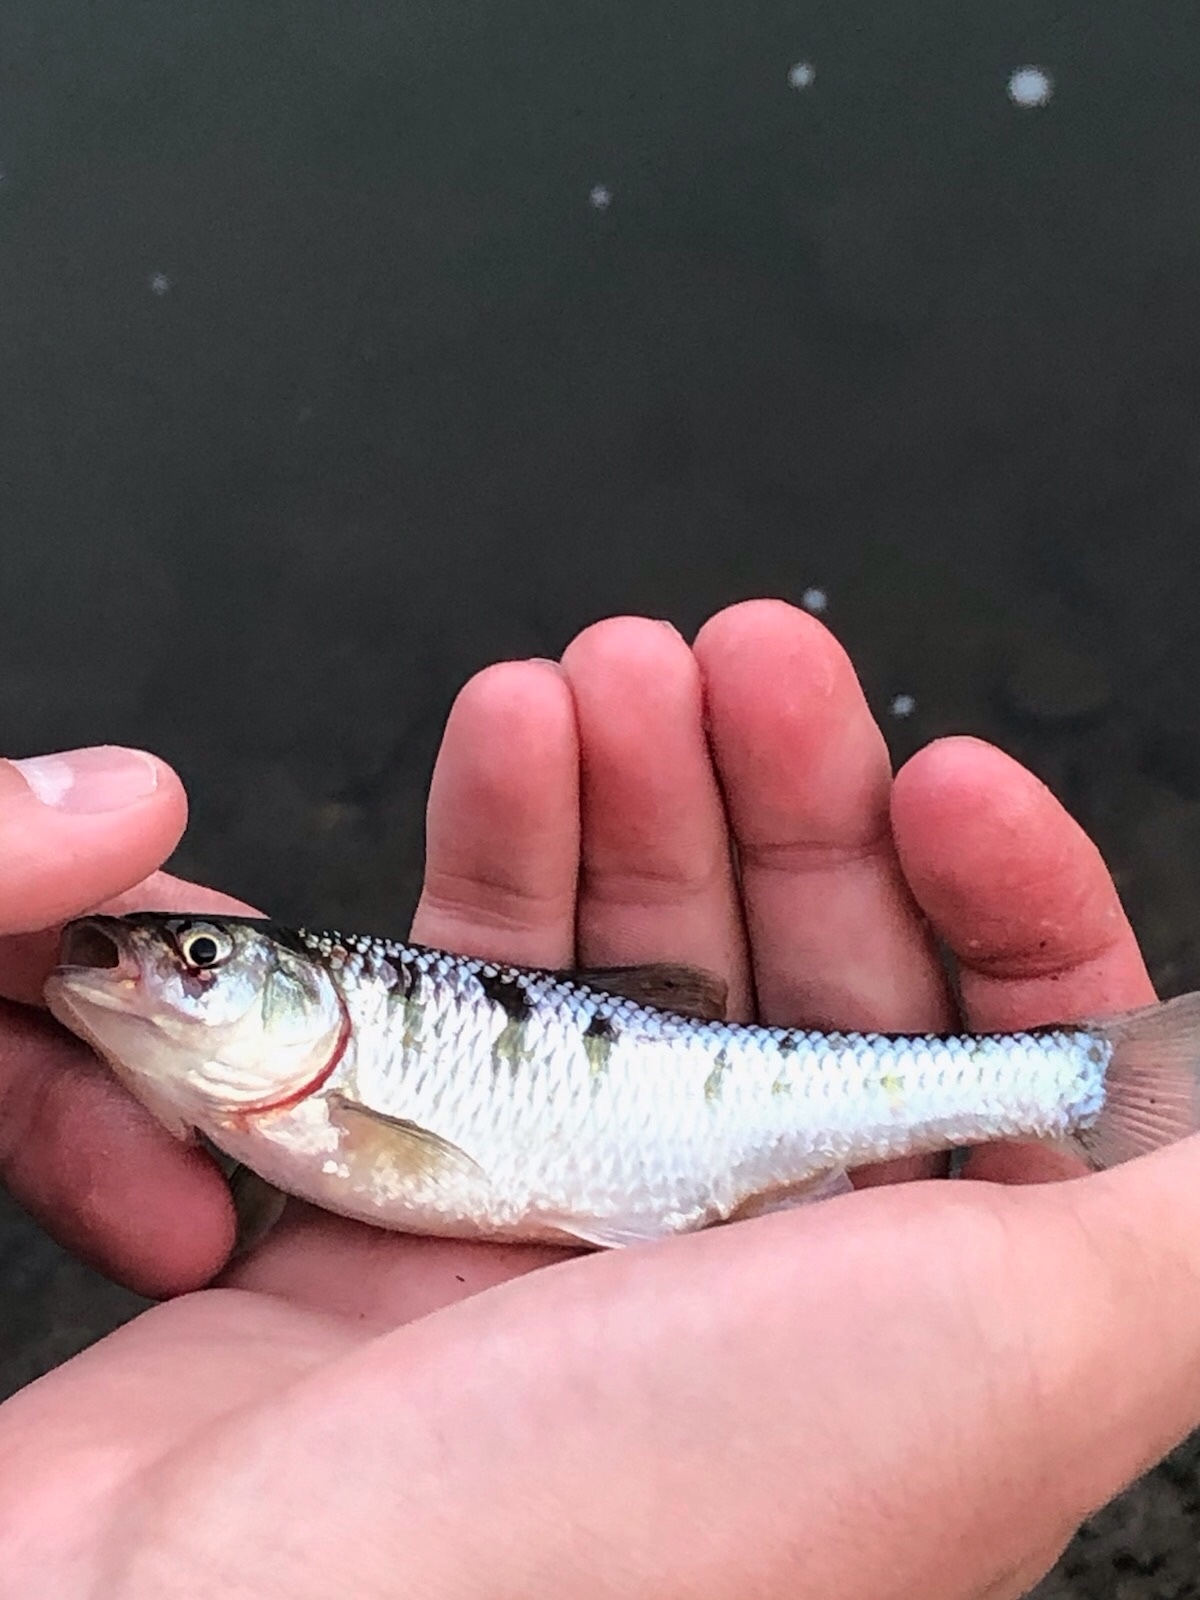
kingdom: Animalia
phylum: Chordata
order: Cypriniformes
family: Cyprinidae
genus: Luxilus
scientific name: Luxilus cornutus
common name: Common shiner
